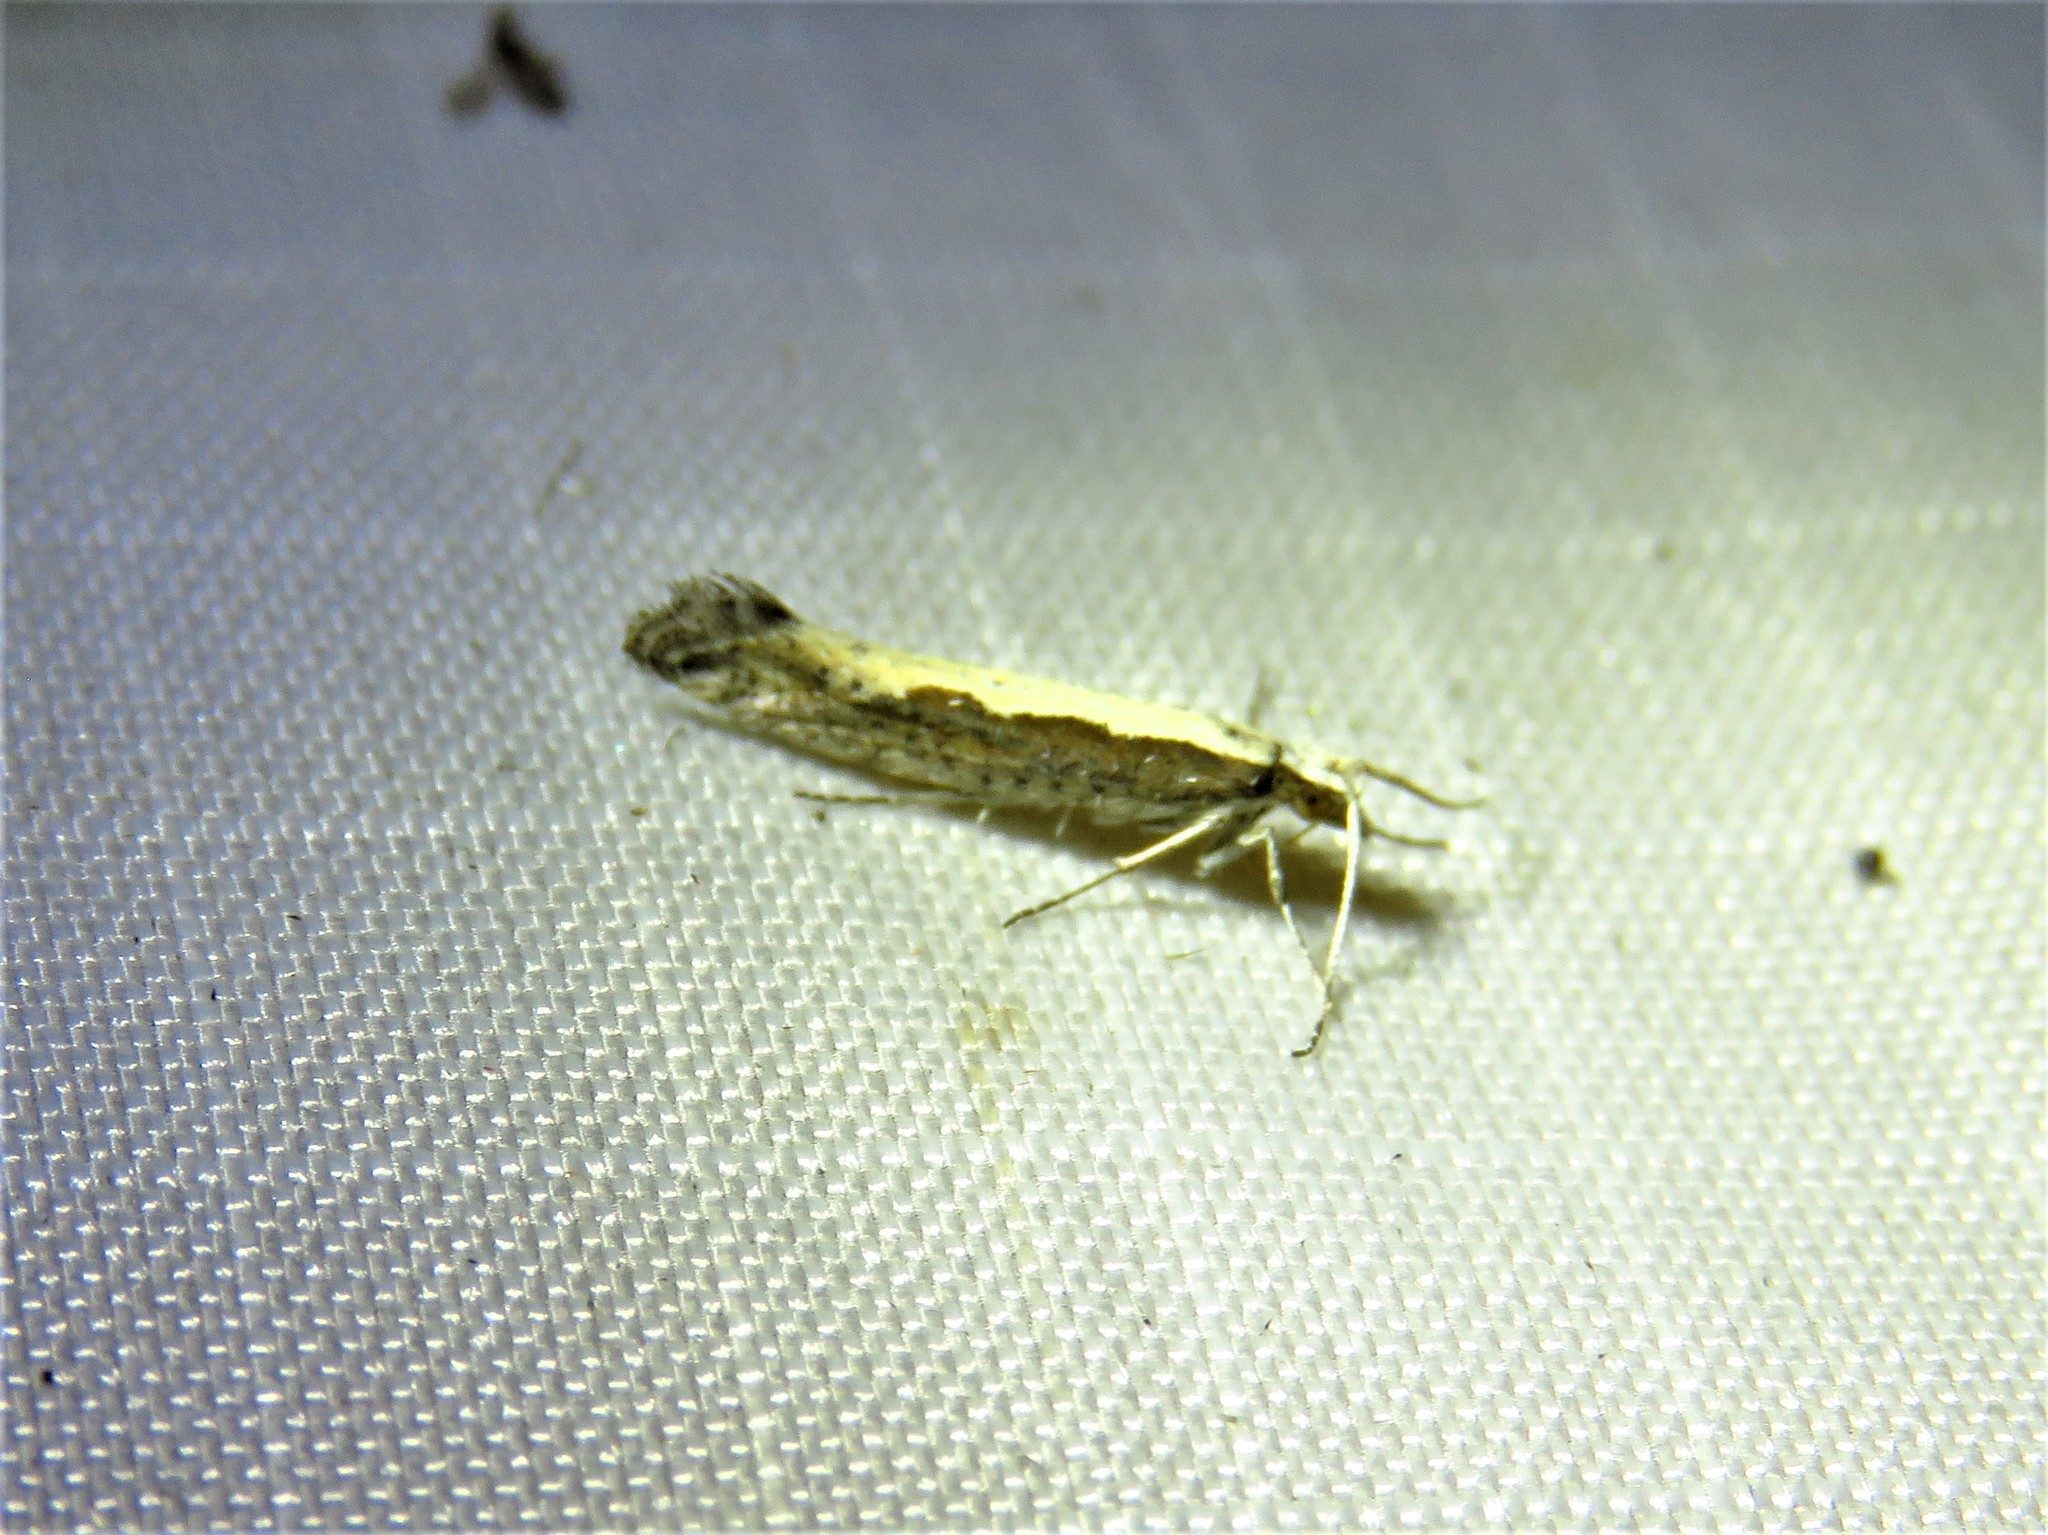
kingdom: Animalia
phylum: Arthropoda
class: Insecta
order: Lepidoptera
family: Plutellidae
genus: Plutella
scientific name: Plutella xylostella
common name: Diamond-back moth
